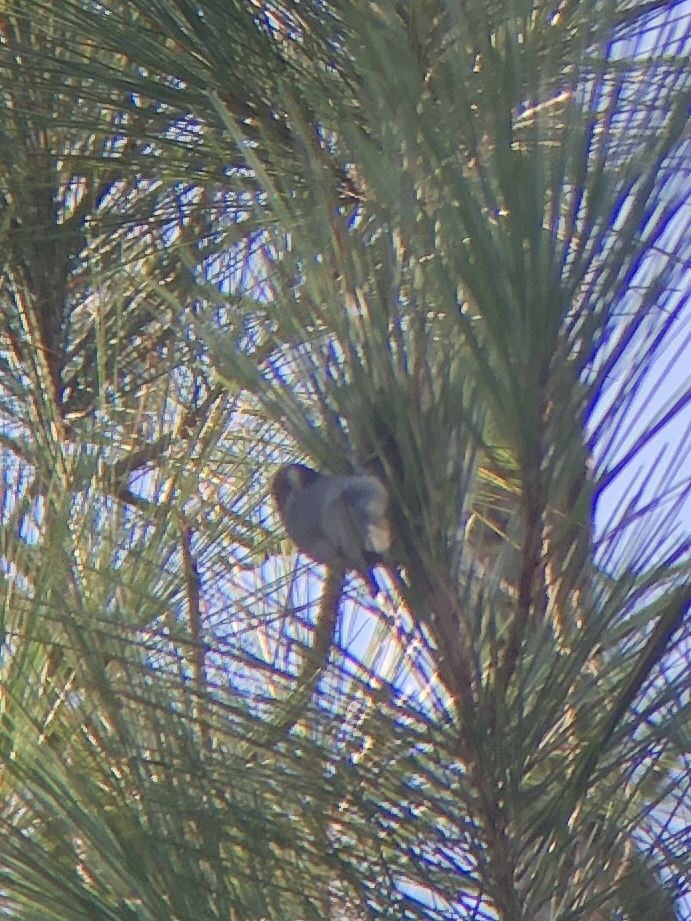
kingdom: Animalia
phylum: Chordata
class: Aves
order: Passeriformes
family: Sittidae
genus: Sitta
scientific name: Sitta pusilla
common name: Brown-headed nuthatch
